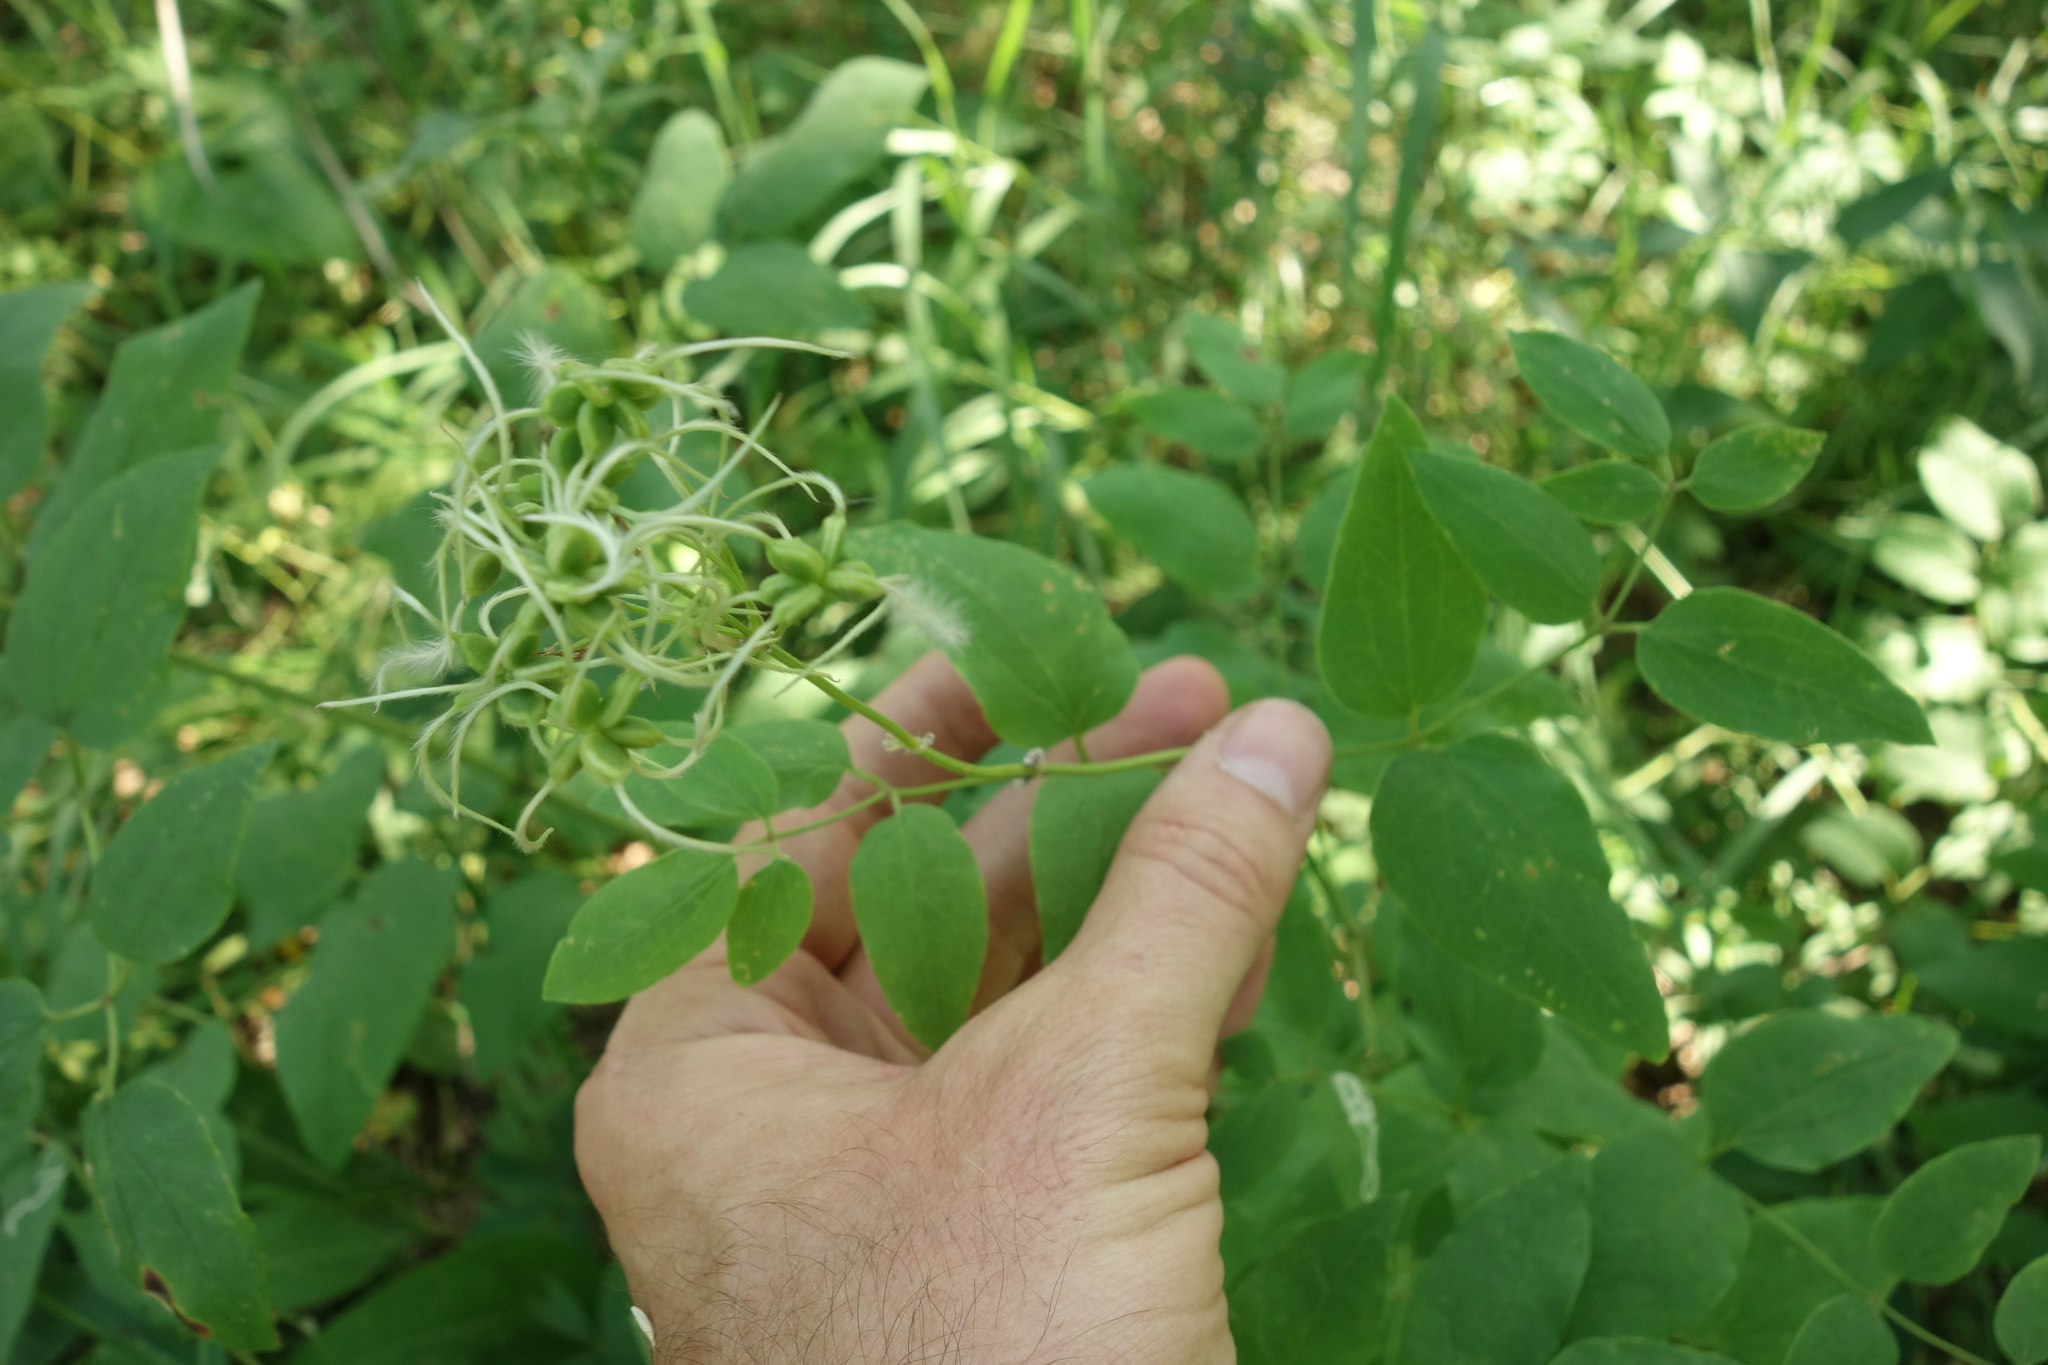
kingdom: Plantae
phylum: Tracheophyta
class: Magnoliopsida
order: Ranunculales
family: Ranunculaceae
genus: Clematis
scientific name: Clematis recta
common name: Ground clematis
